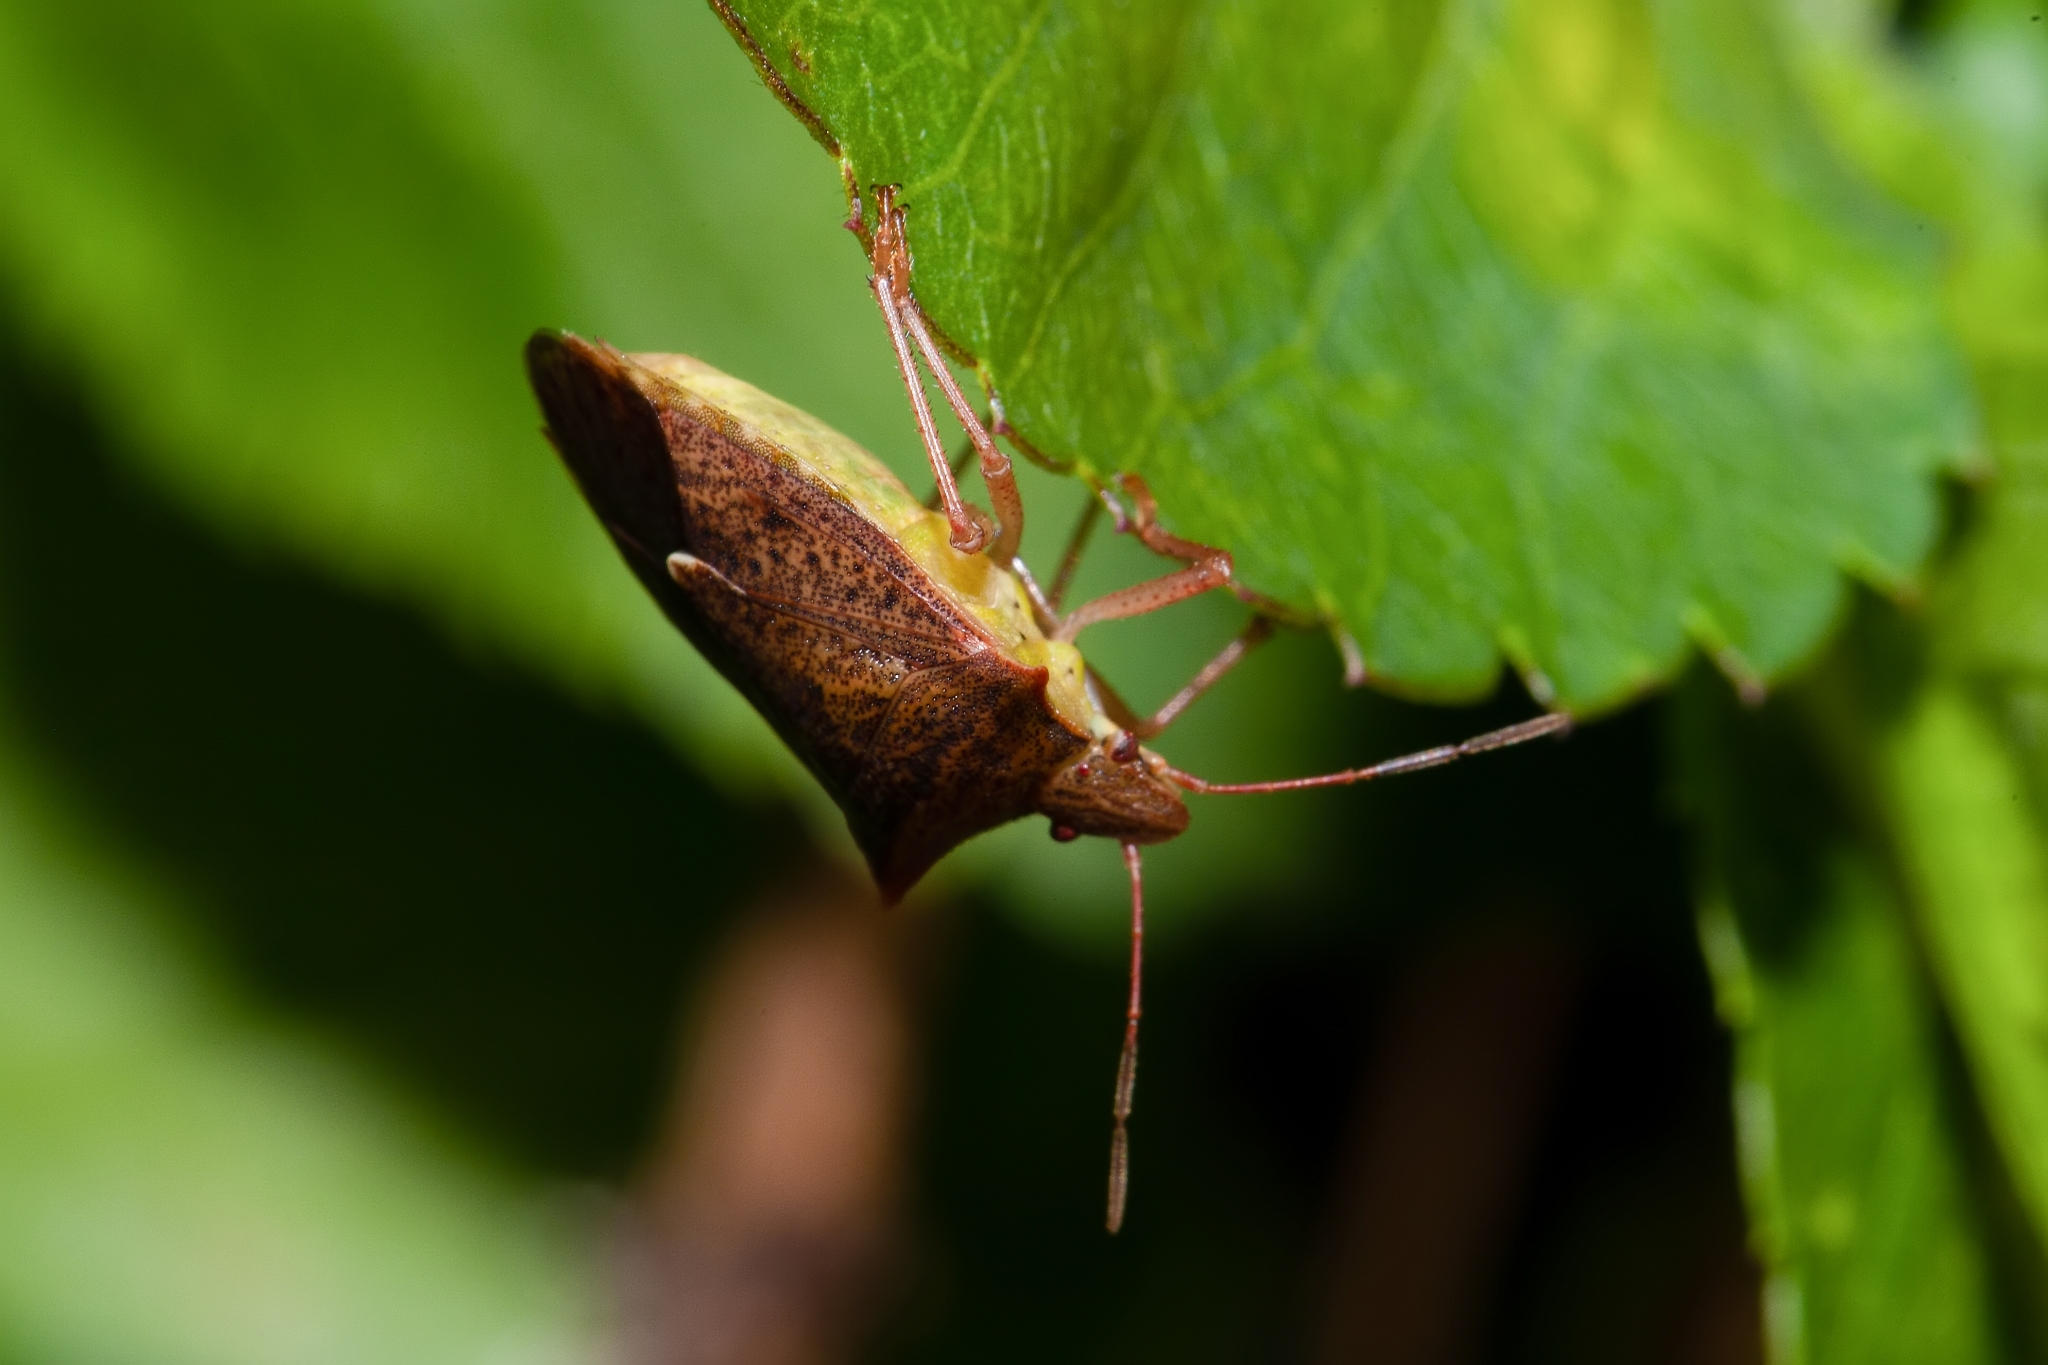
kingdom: Animalia
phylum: Arthropoda
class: Insecta
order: Hemiptera
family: Pentatomidae
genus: Euschistus
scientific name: Euschistus ictericus
